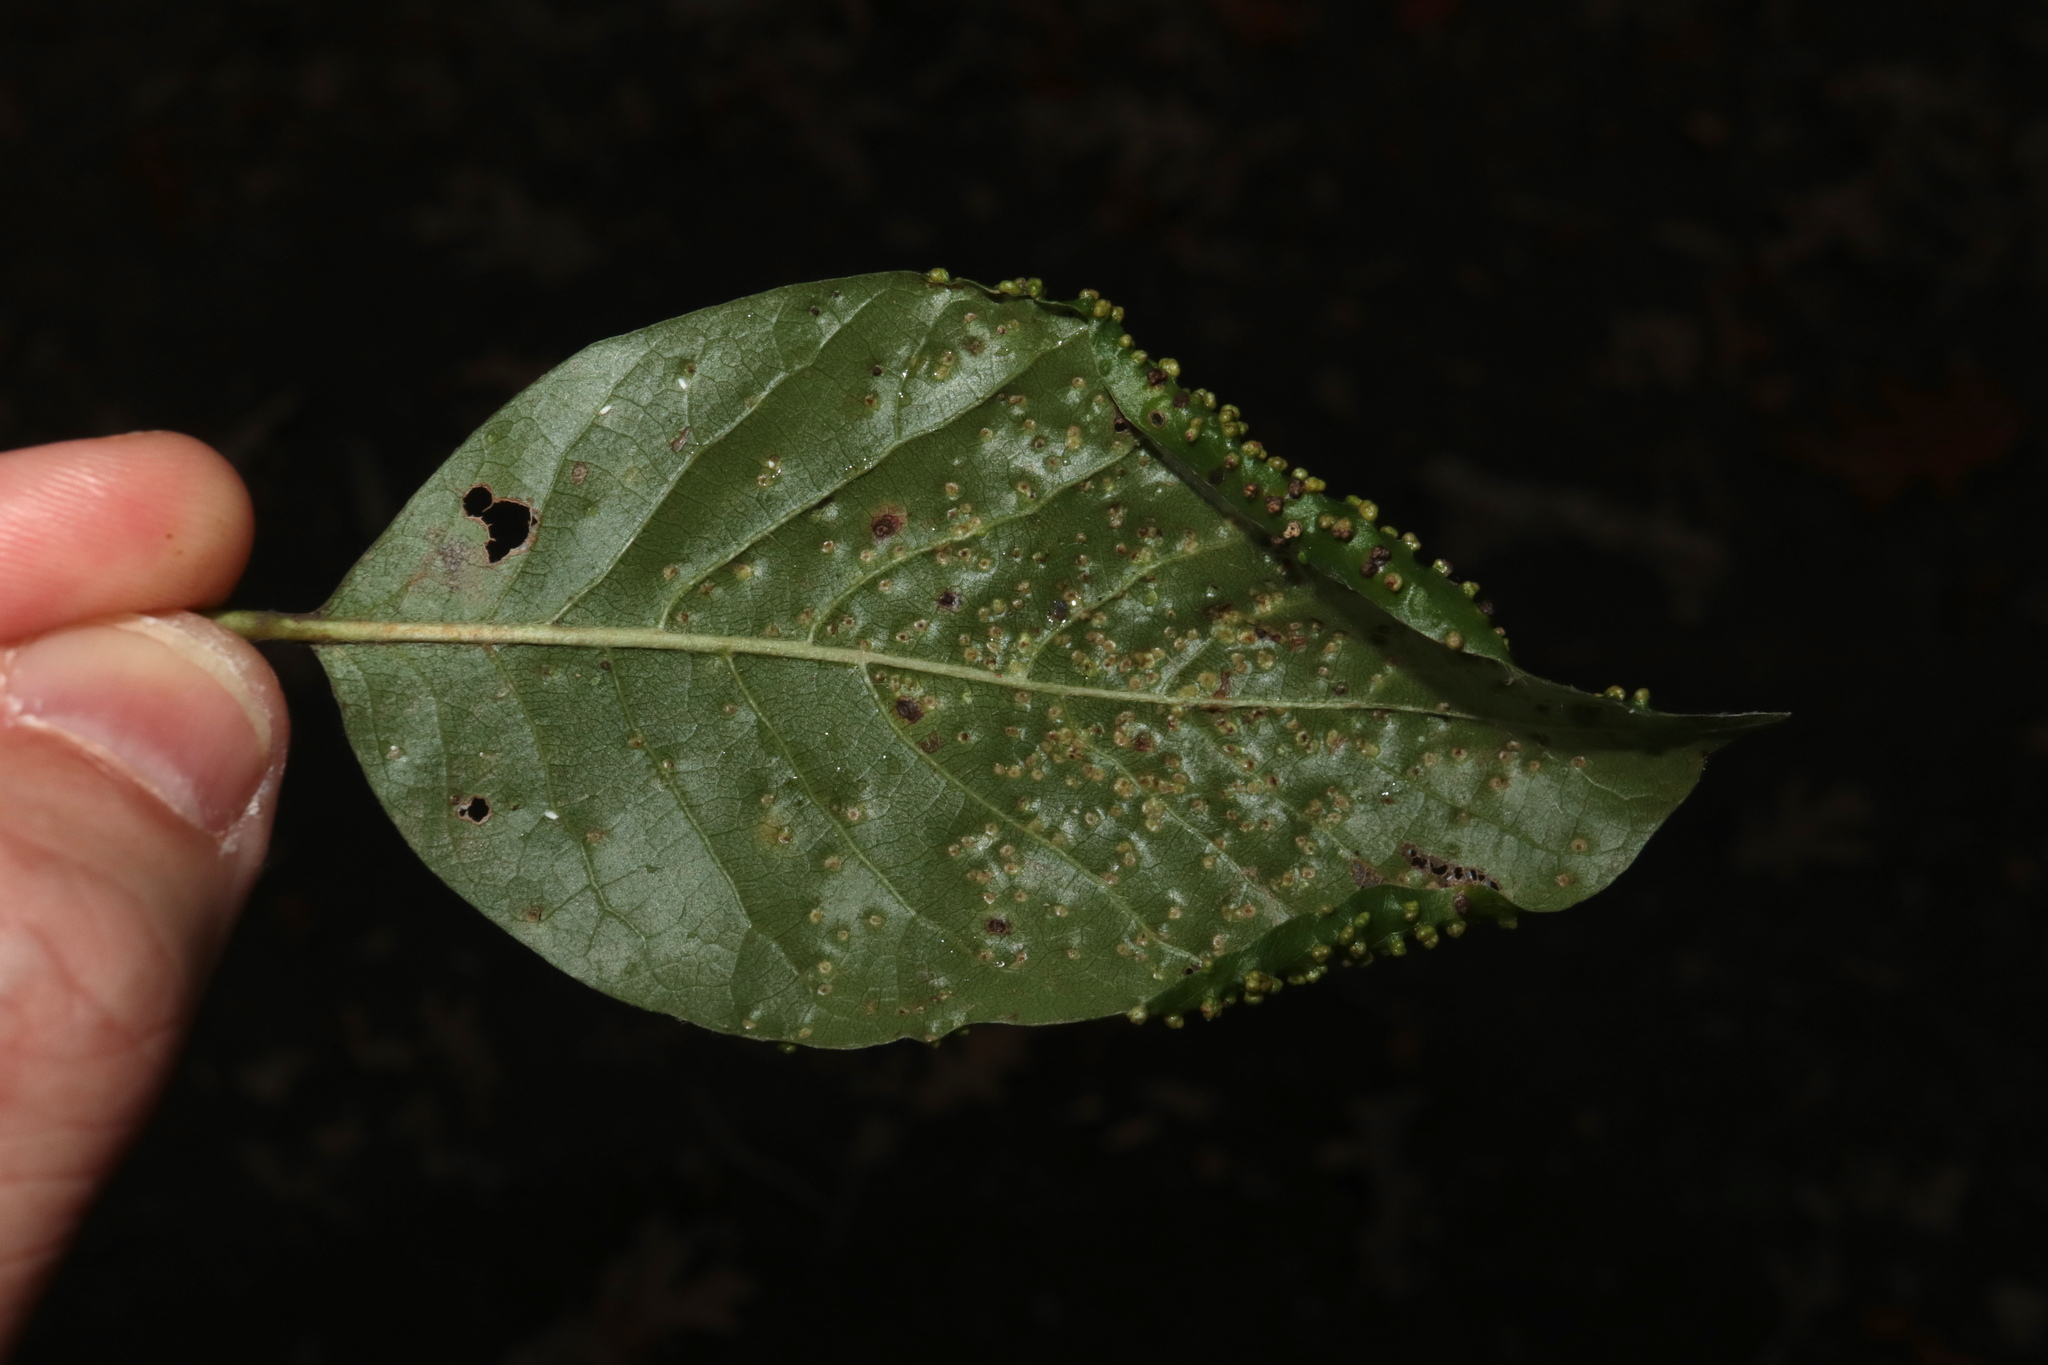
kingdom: Animalia
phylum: Arthropoda
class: Arachnida
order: Trombidiformes
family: Eriophyidae
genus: Aceria
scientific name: Aceria
